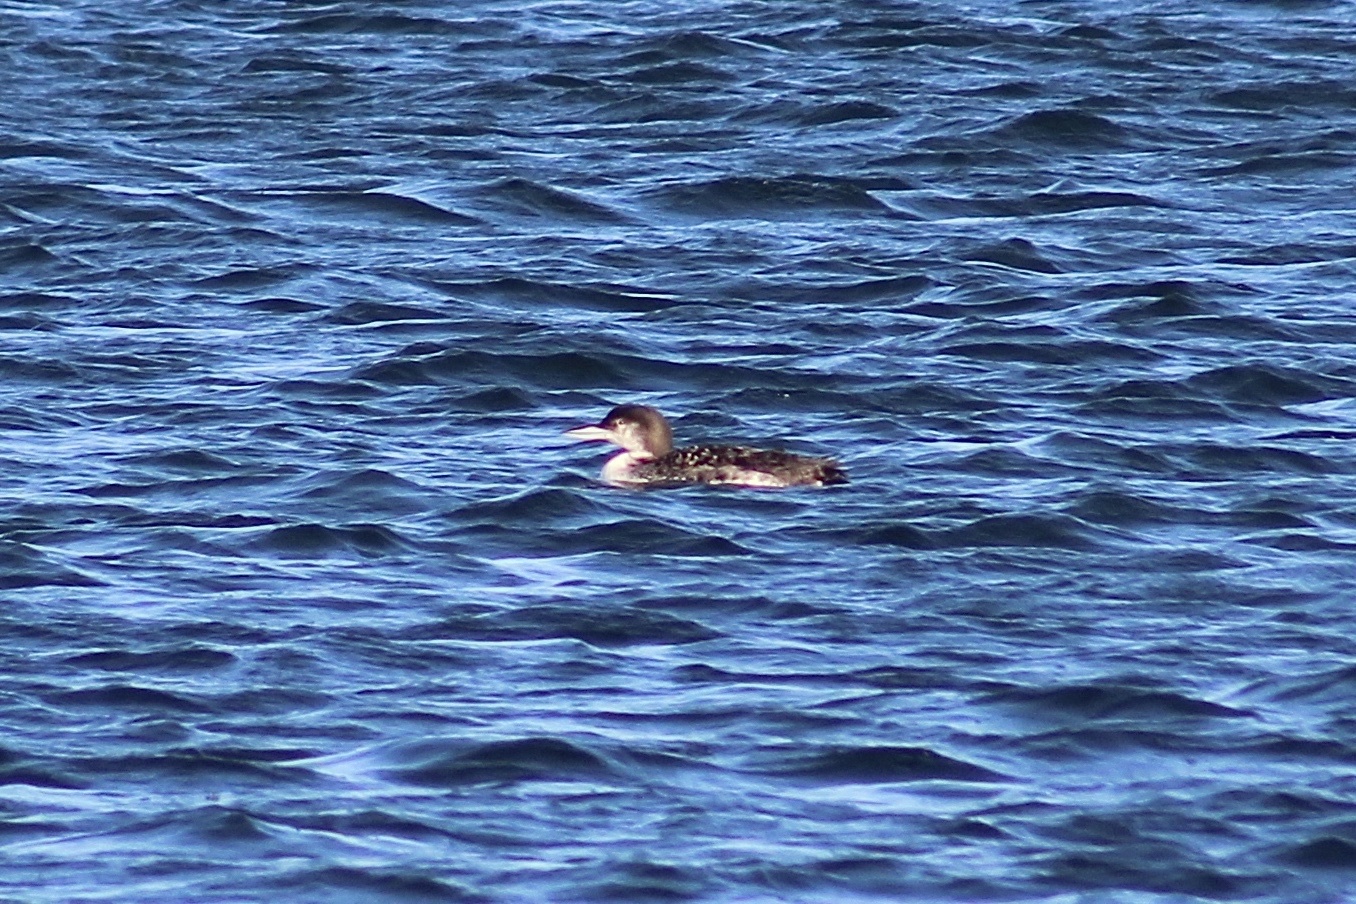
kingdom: Animalia
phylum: Chordata
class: Aves
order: Gaviiformes
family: Gaviidae
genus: Gavia
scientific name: Gavia immer
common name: Common loon
